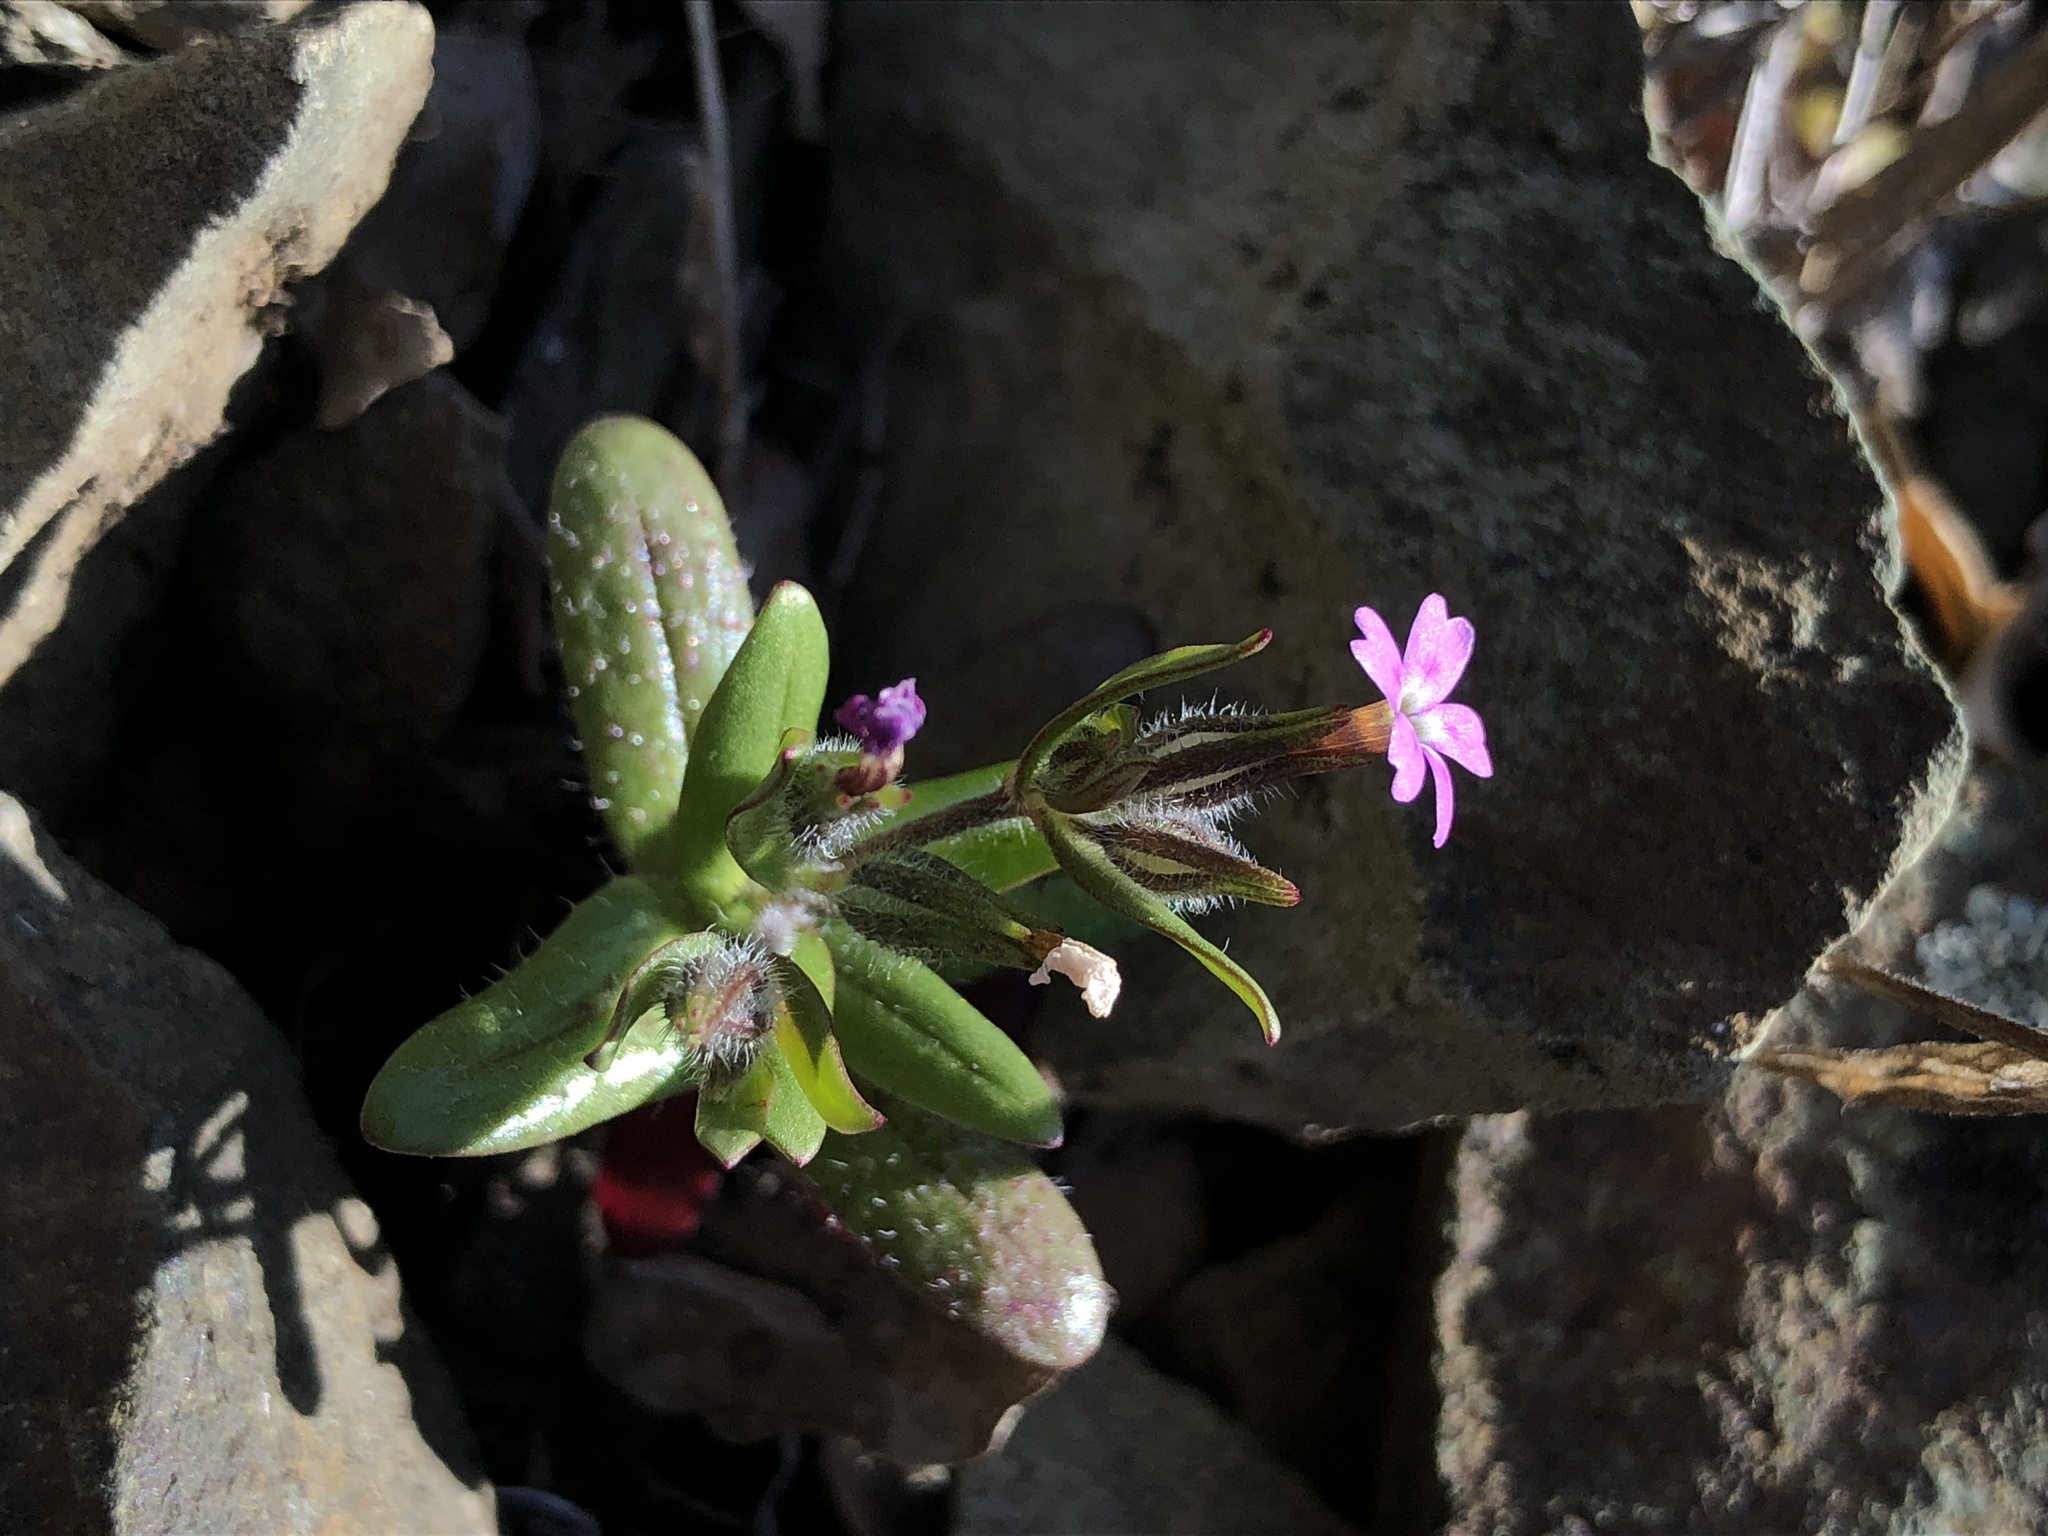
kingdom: Plantae
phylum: Tracheophyta
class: Magnoliopsida
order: Ericales
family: Polemoniaceae
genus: Phlox
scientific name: Phlox gracilis
